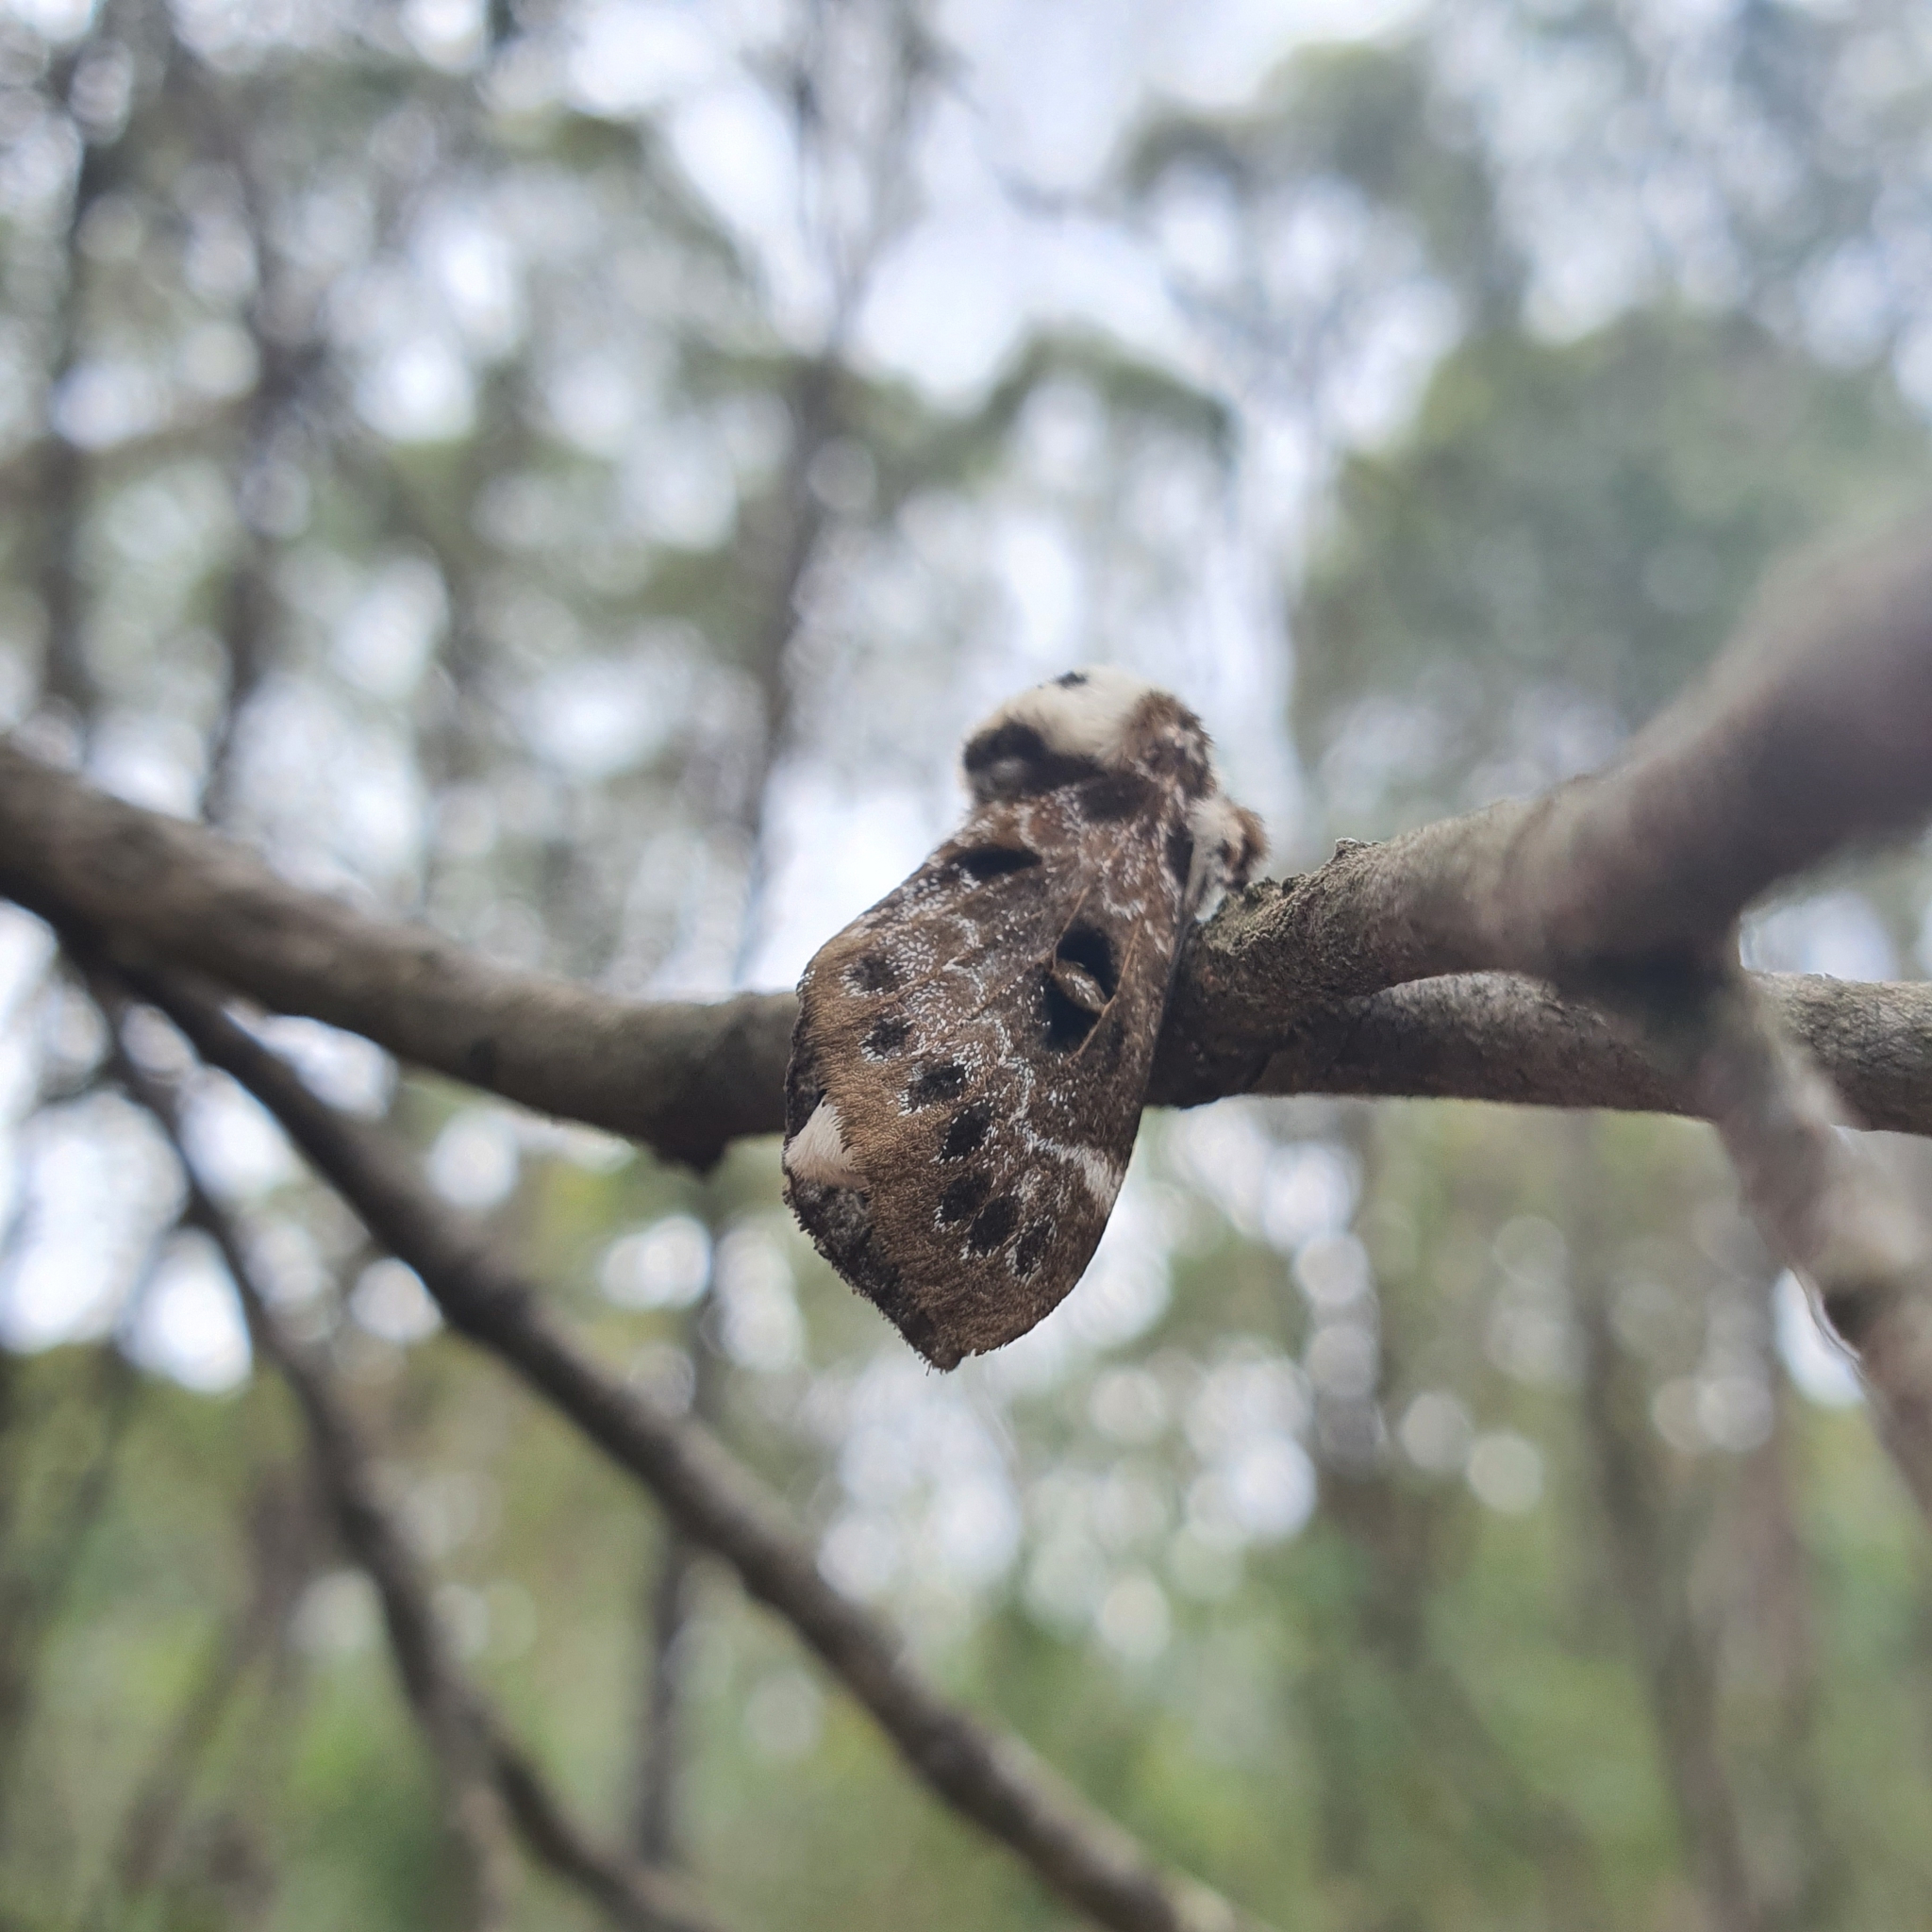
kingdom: Animalia
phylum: Arthropoda
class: Insecta
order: Lepidoptera
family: Lasiocampidae
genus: Genduara
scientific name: Genduara punctigera
